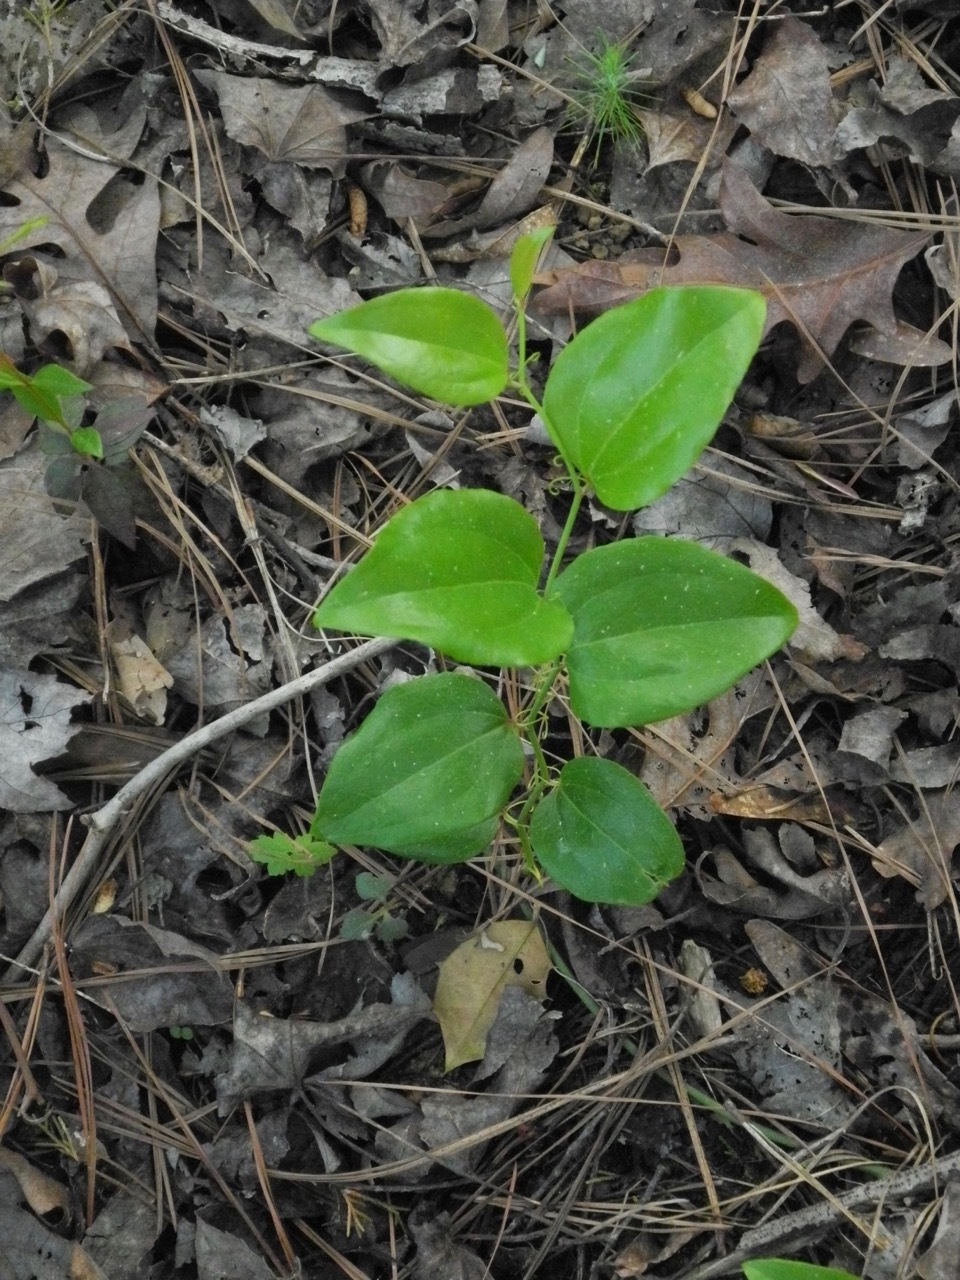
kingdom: Plantae
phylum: Tracheophyta
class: Liliopsida
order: Liliales
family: Smilacaceae
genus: Smilax
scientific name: Smilax rotundifolia
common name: Bullbriar
